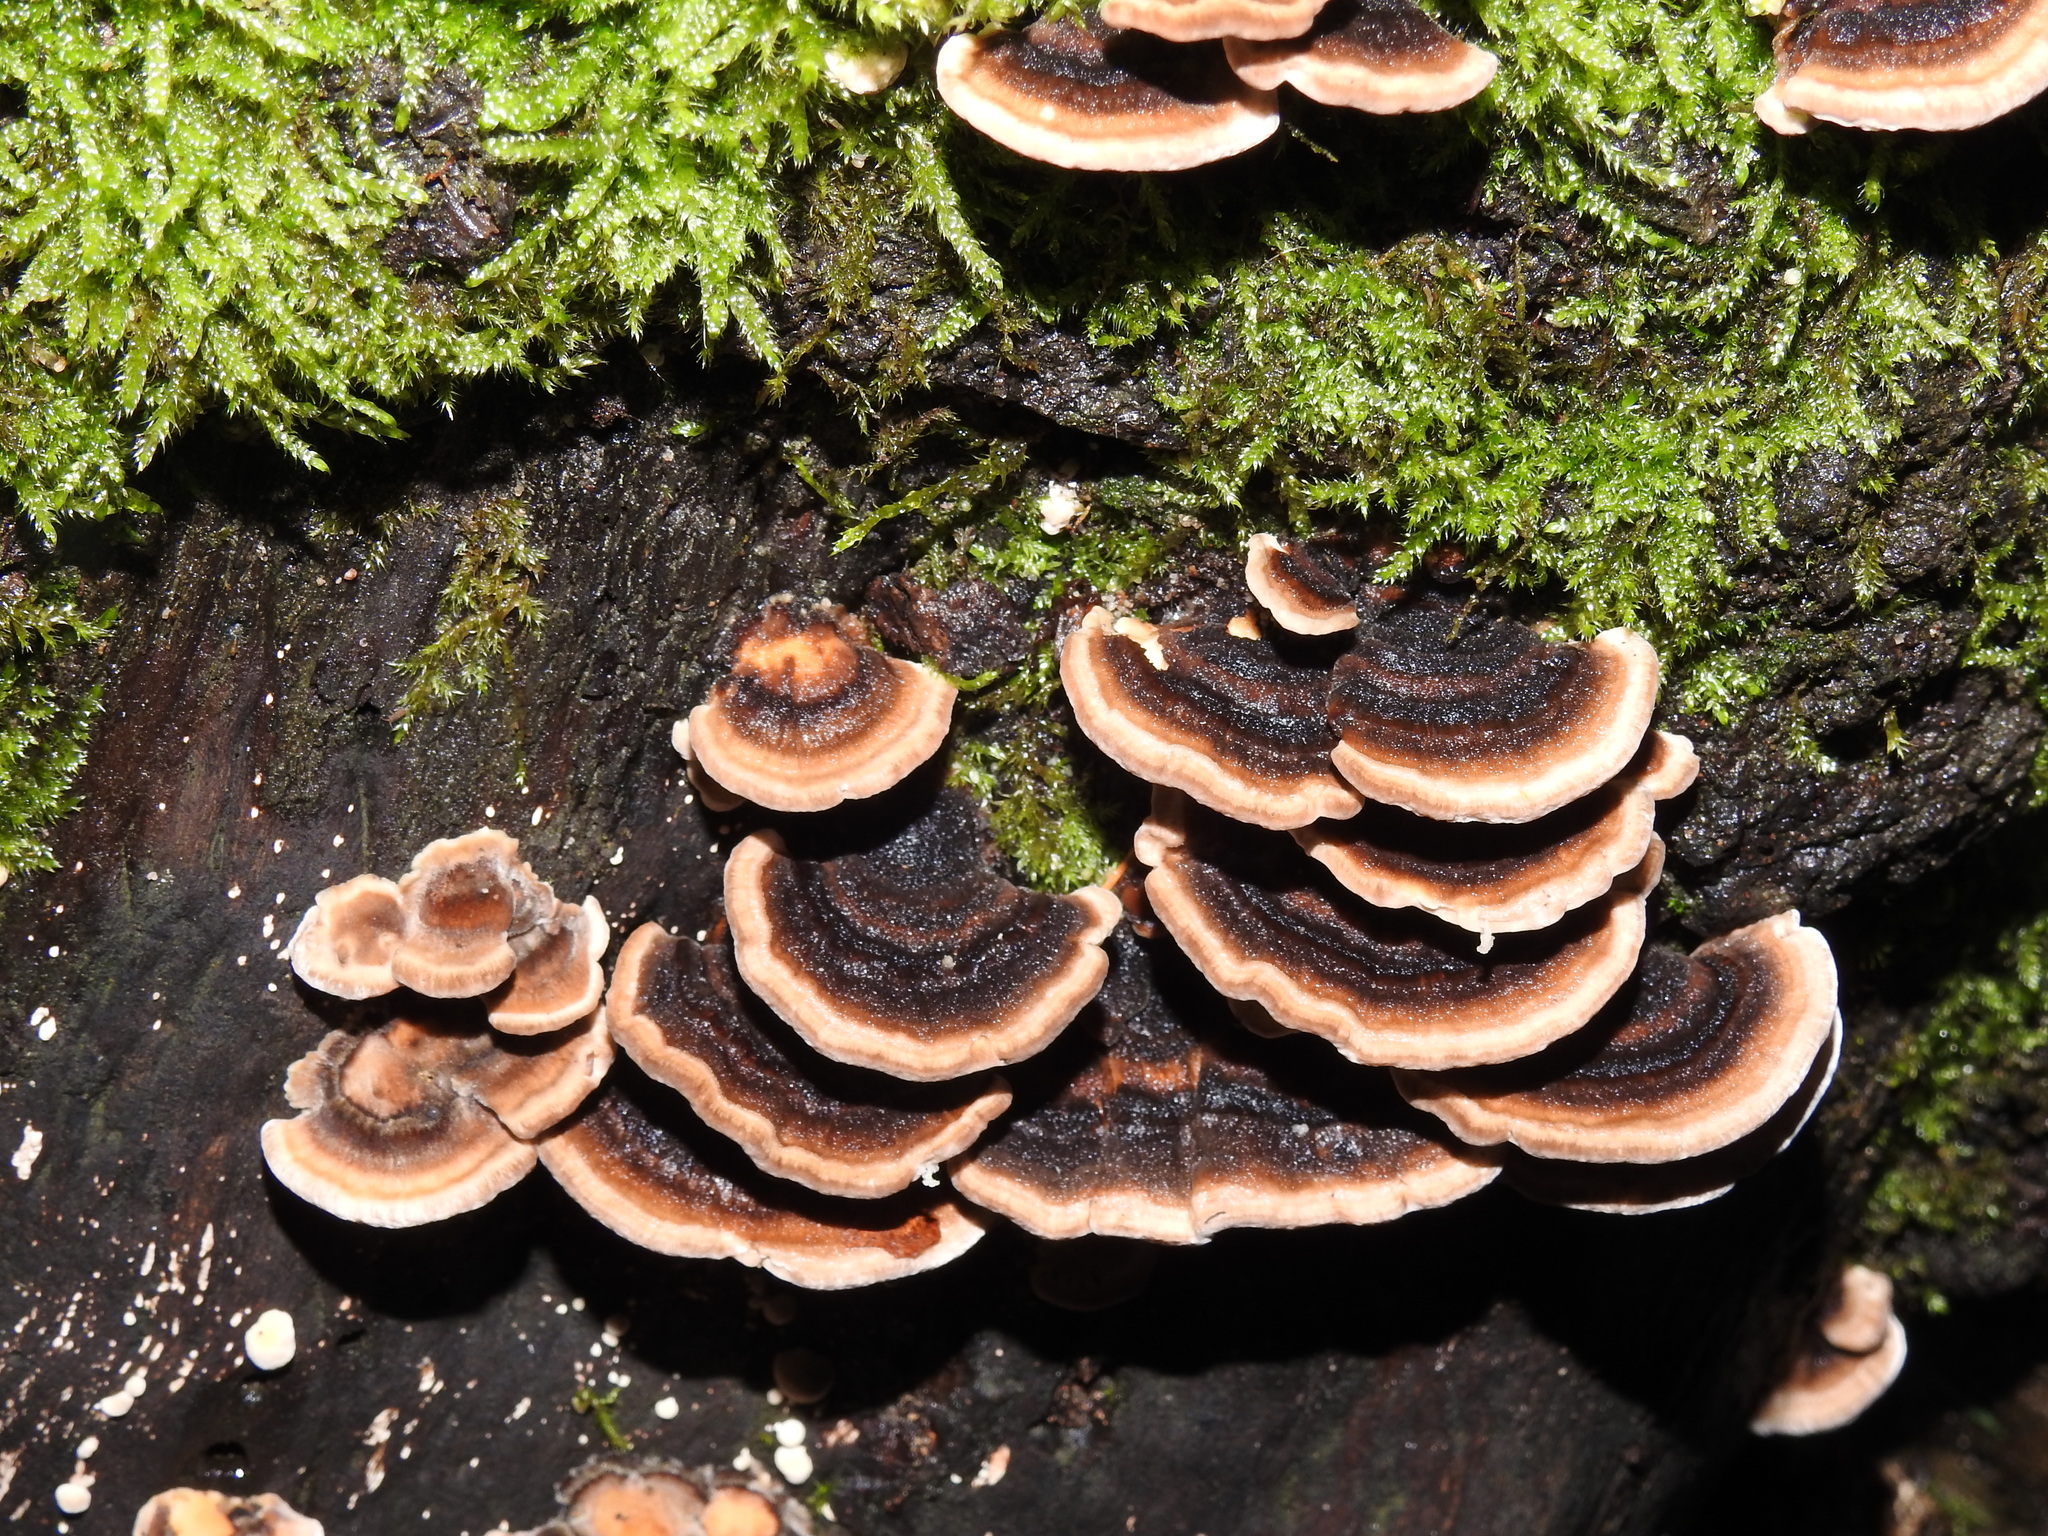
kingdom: Fungi
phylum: Basidiomycota
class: Agaricomycetes
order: Polyporales
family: Polyporaceae
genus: Trametes
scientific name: Trametes versicolor
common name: Turkeytail
